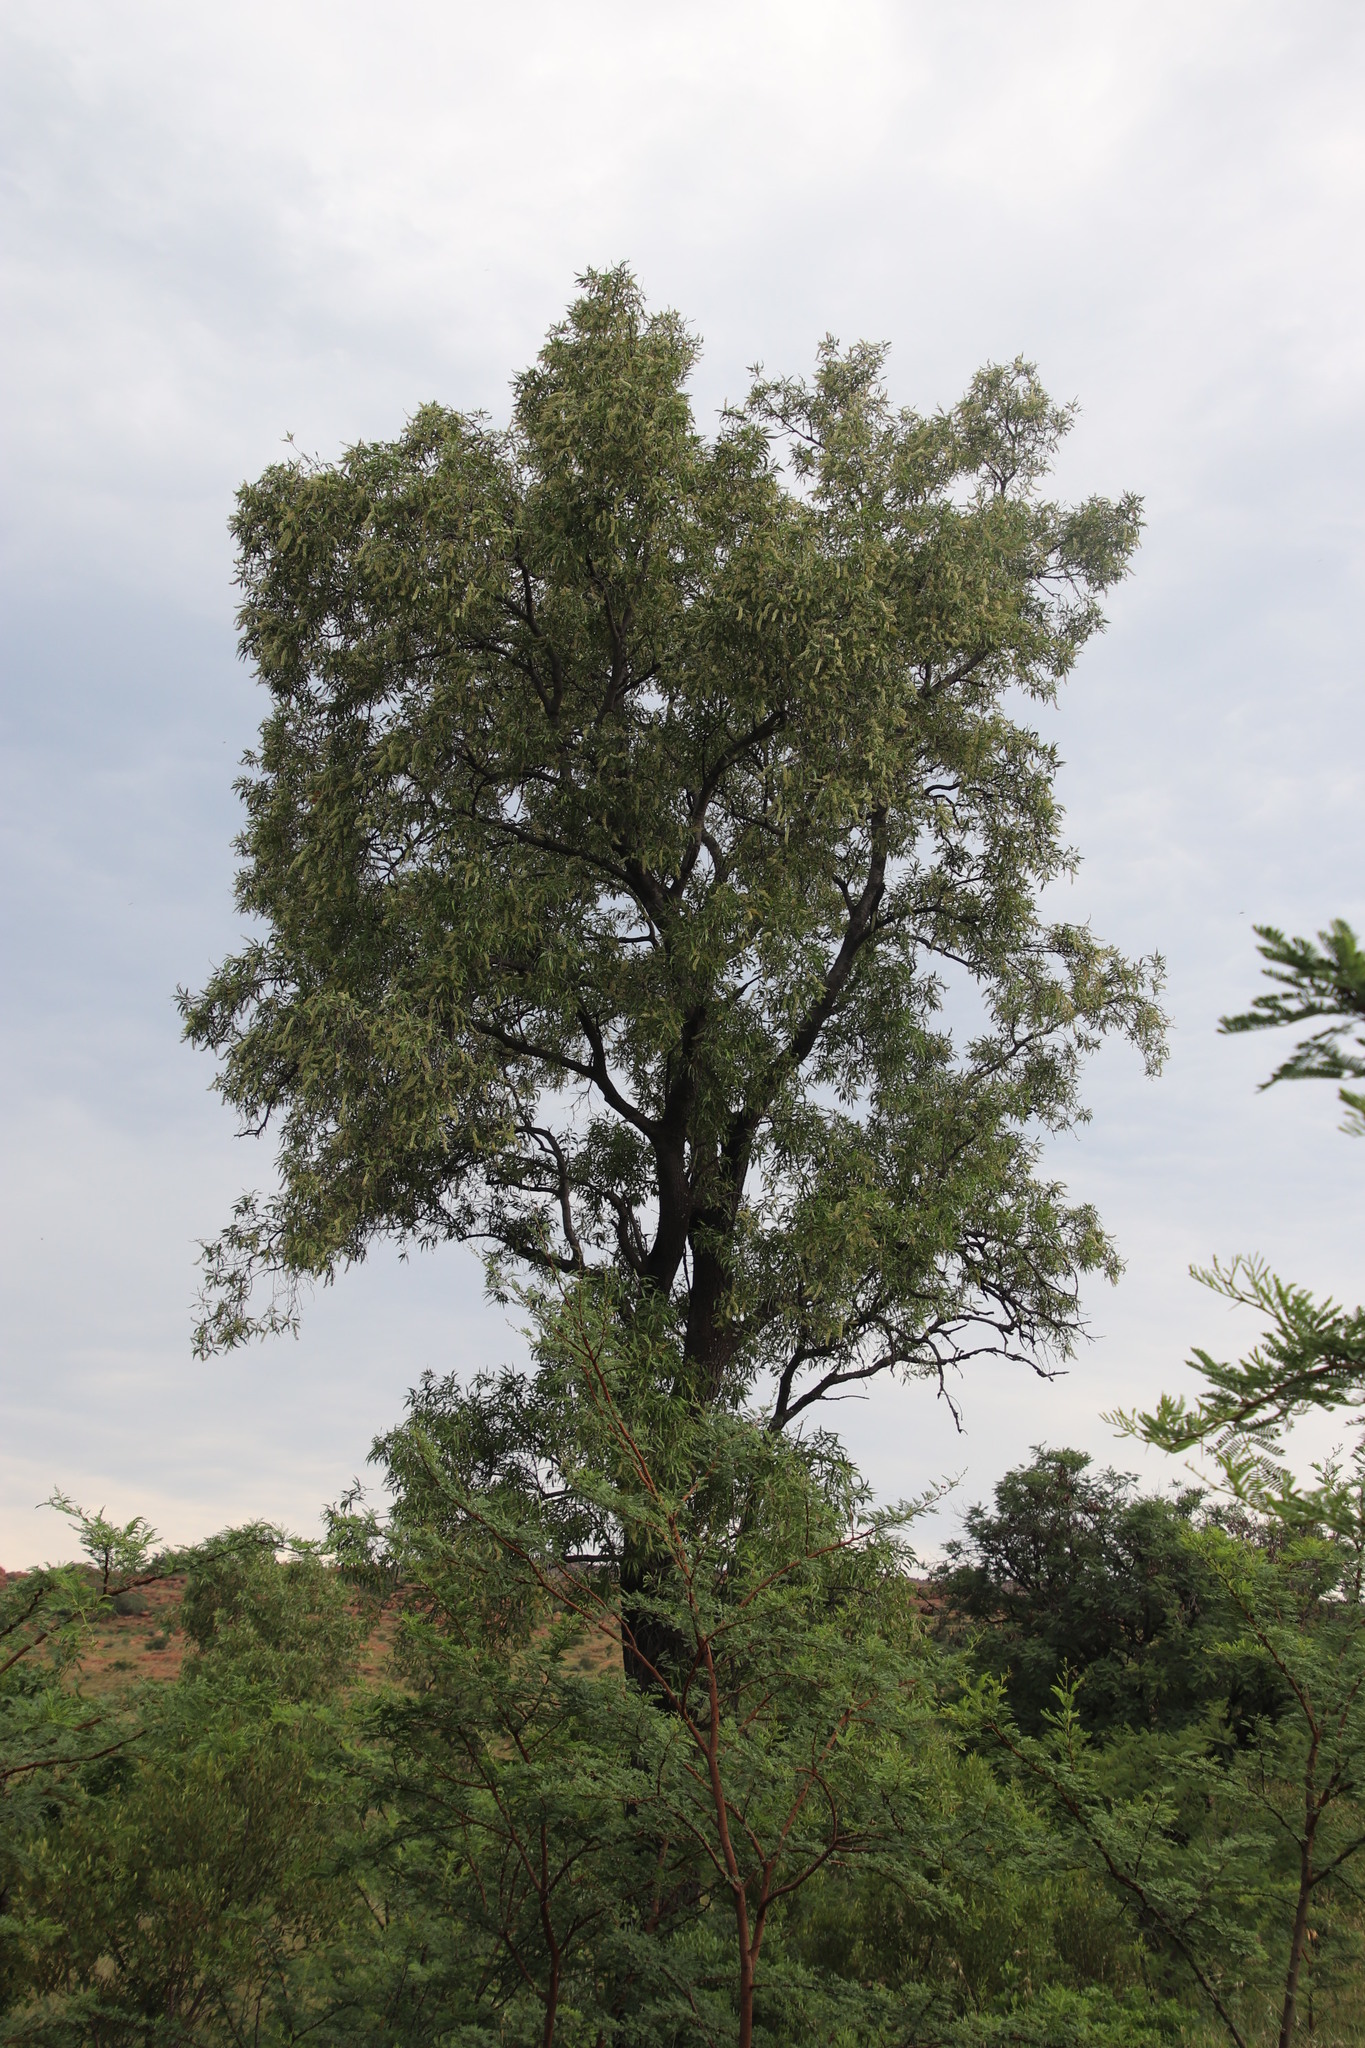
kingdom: Plantae
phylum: Tracheophyta
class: Magnoliopsida
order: Proteales
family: Proteaceae
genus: Faurea
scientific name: Faurea saligna
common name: African bean
